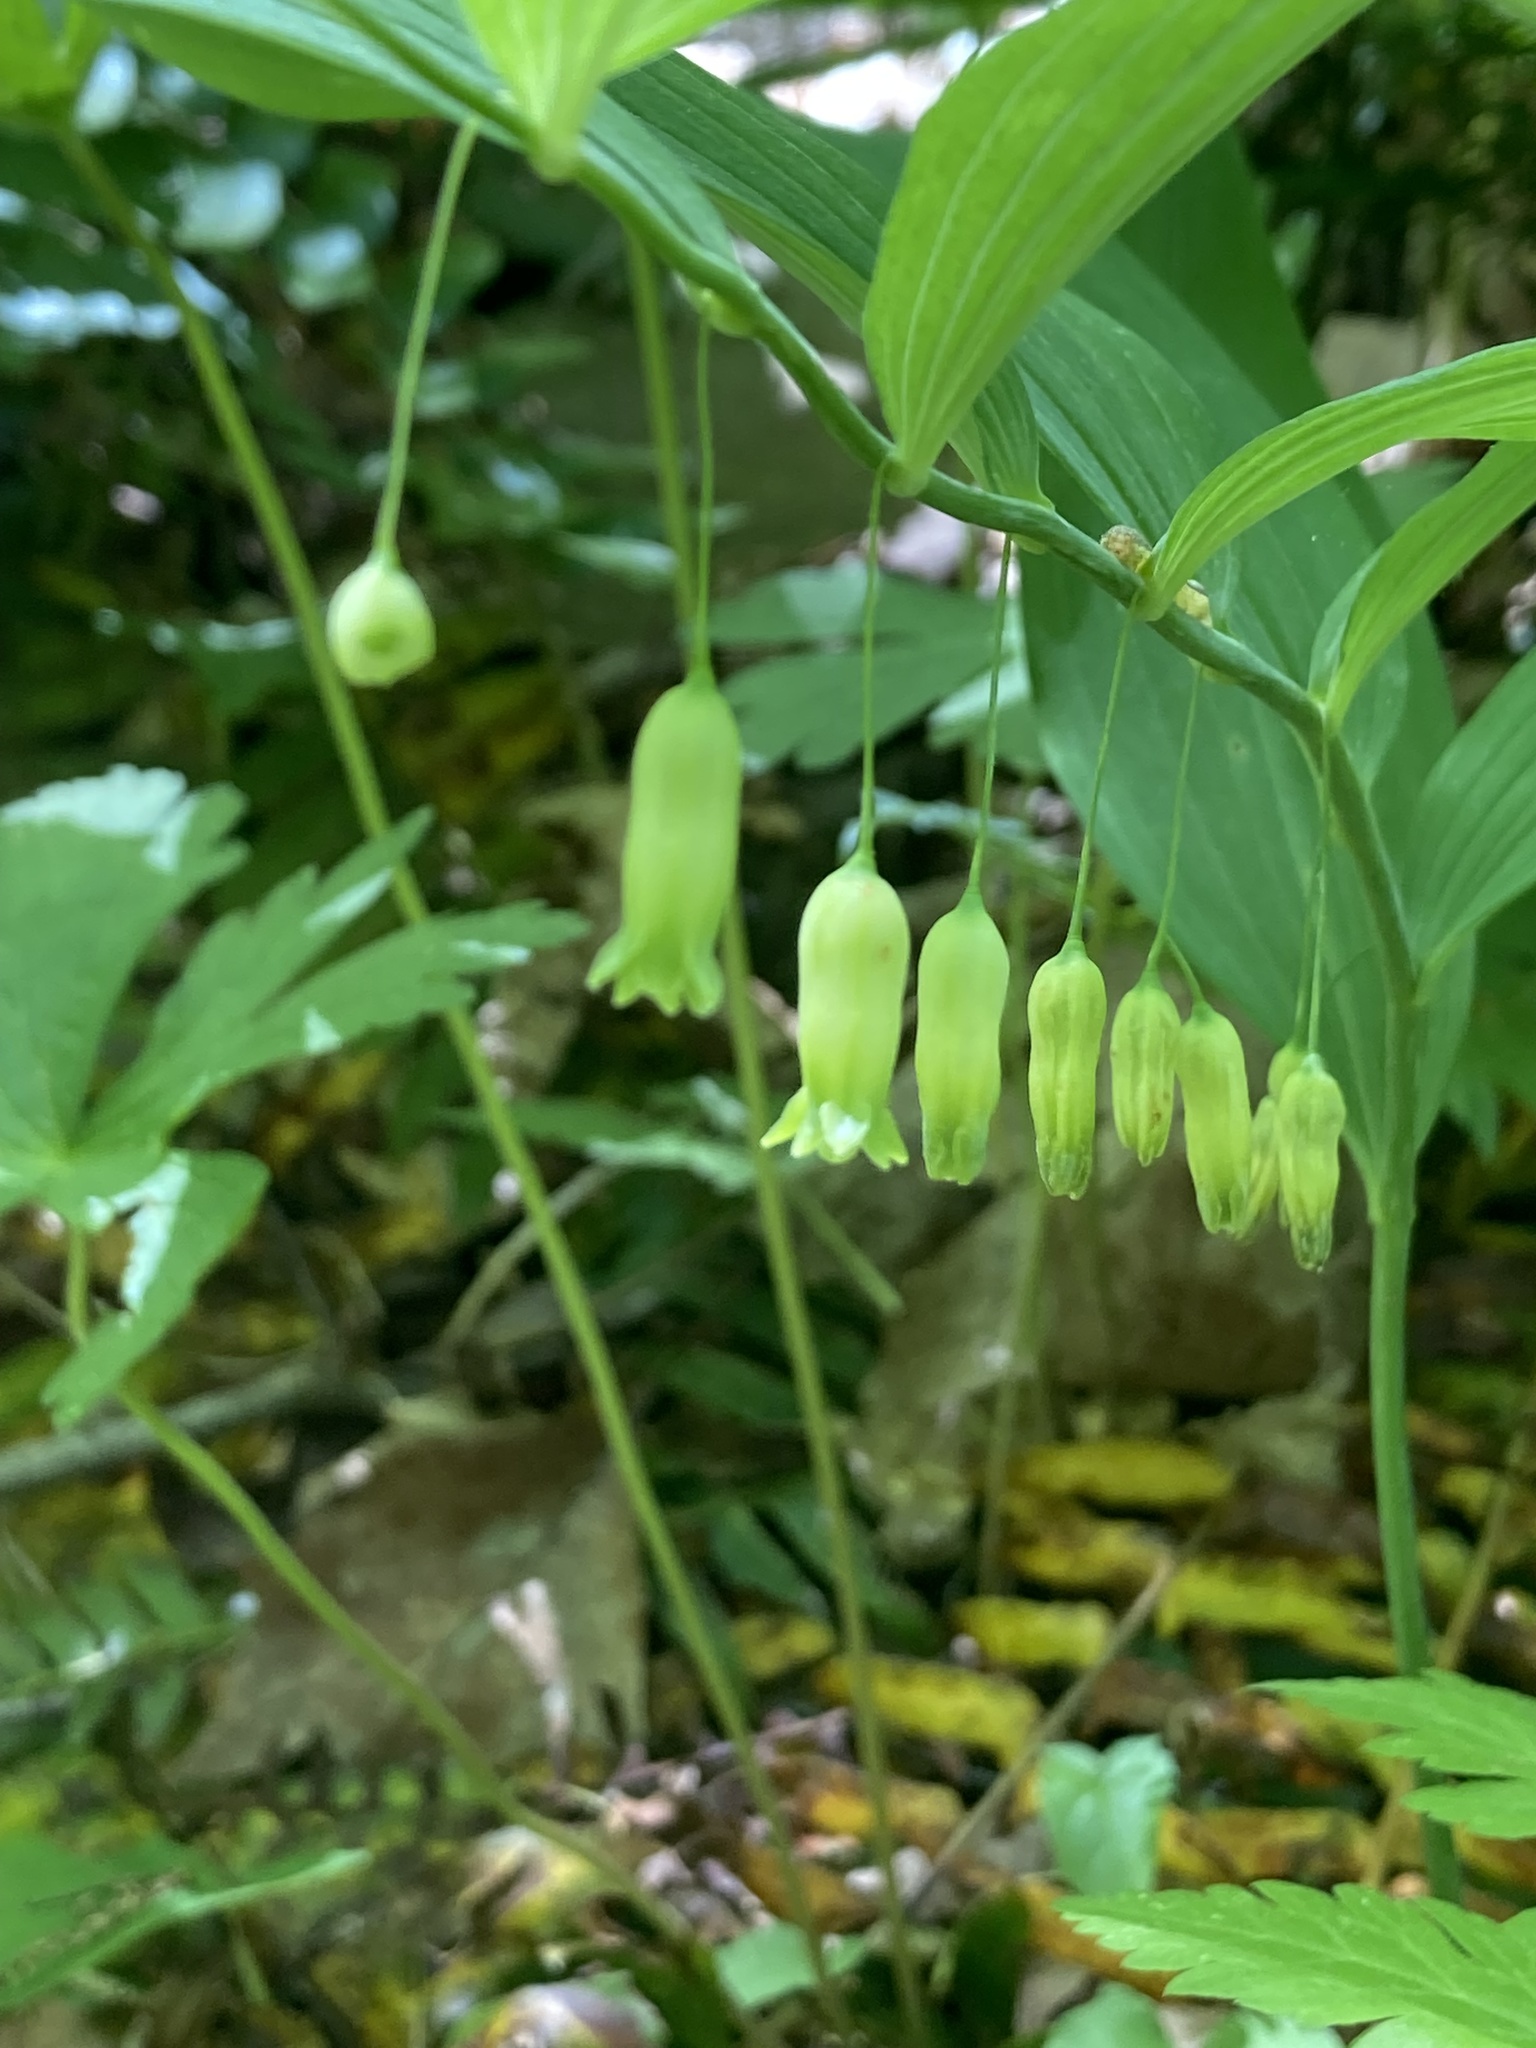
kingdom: Plantae
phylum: Tracheophyta
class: Liliopsida
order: Asparagales
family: Asparagaceae
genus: Polygonatum
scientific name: Polygonatum pubescens
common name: Downy solomon's seal
